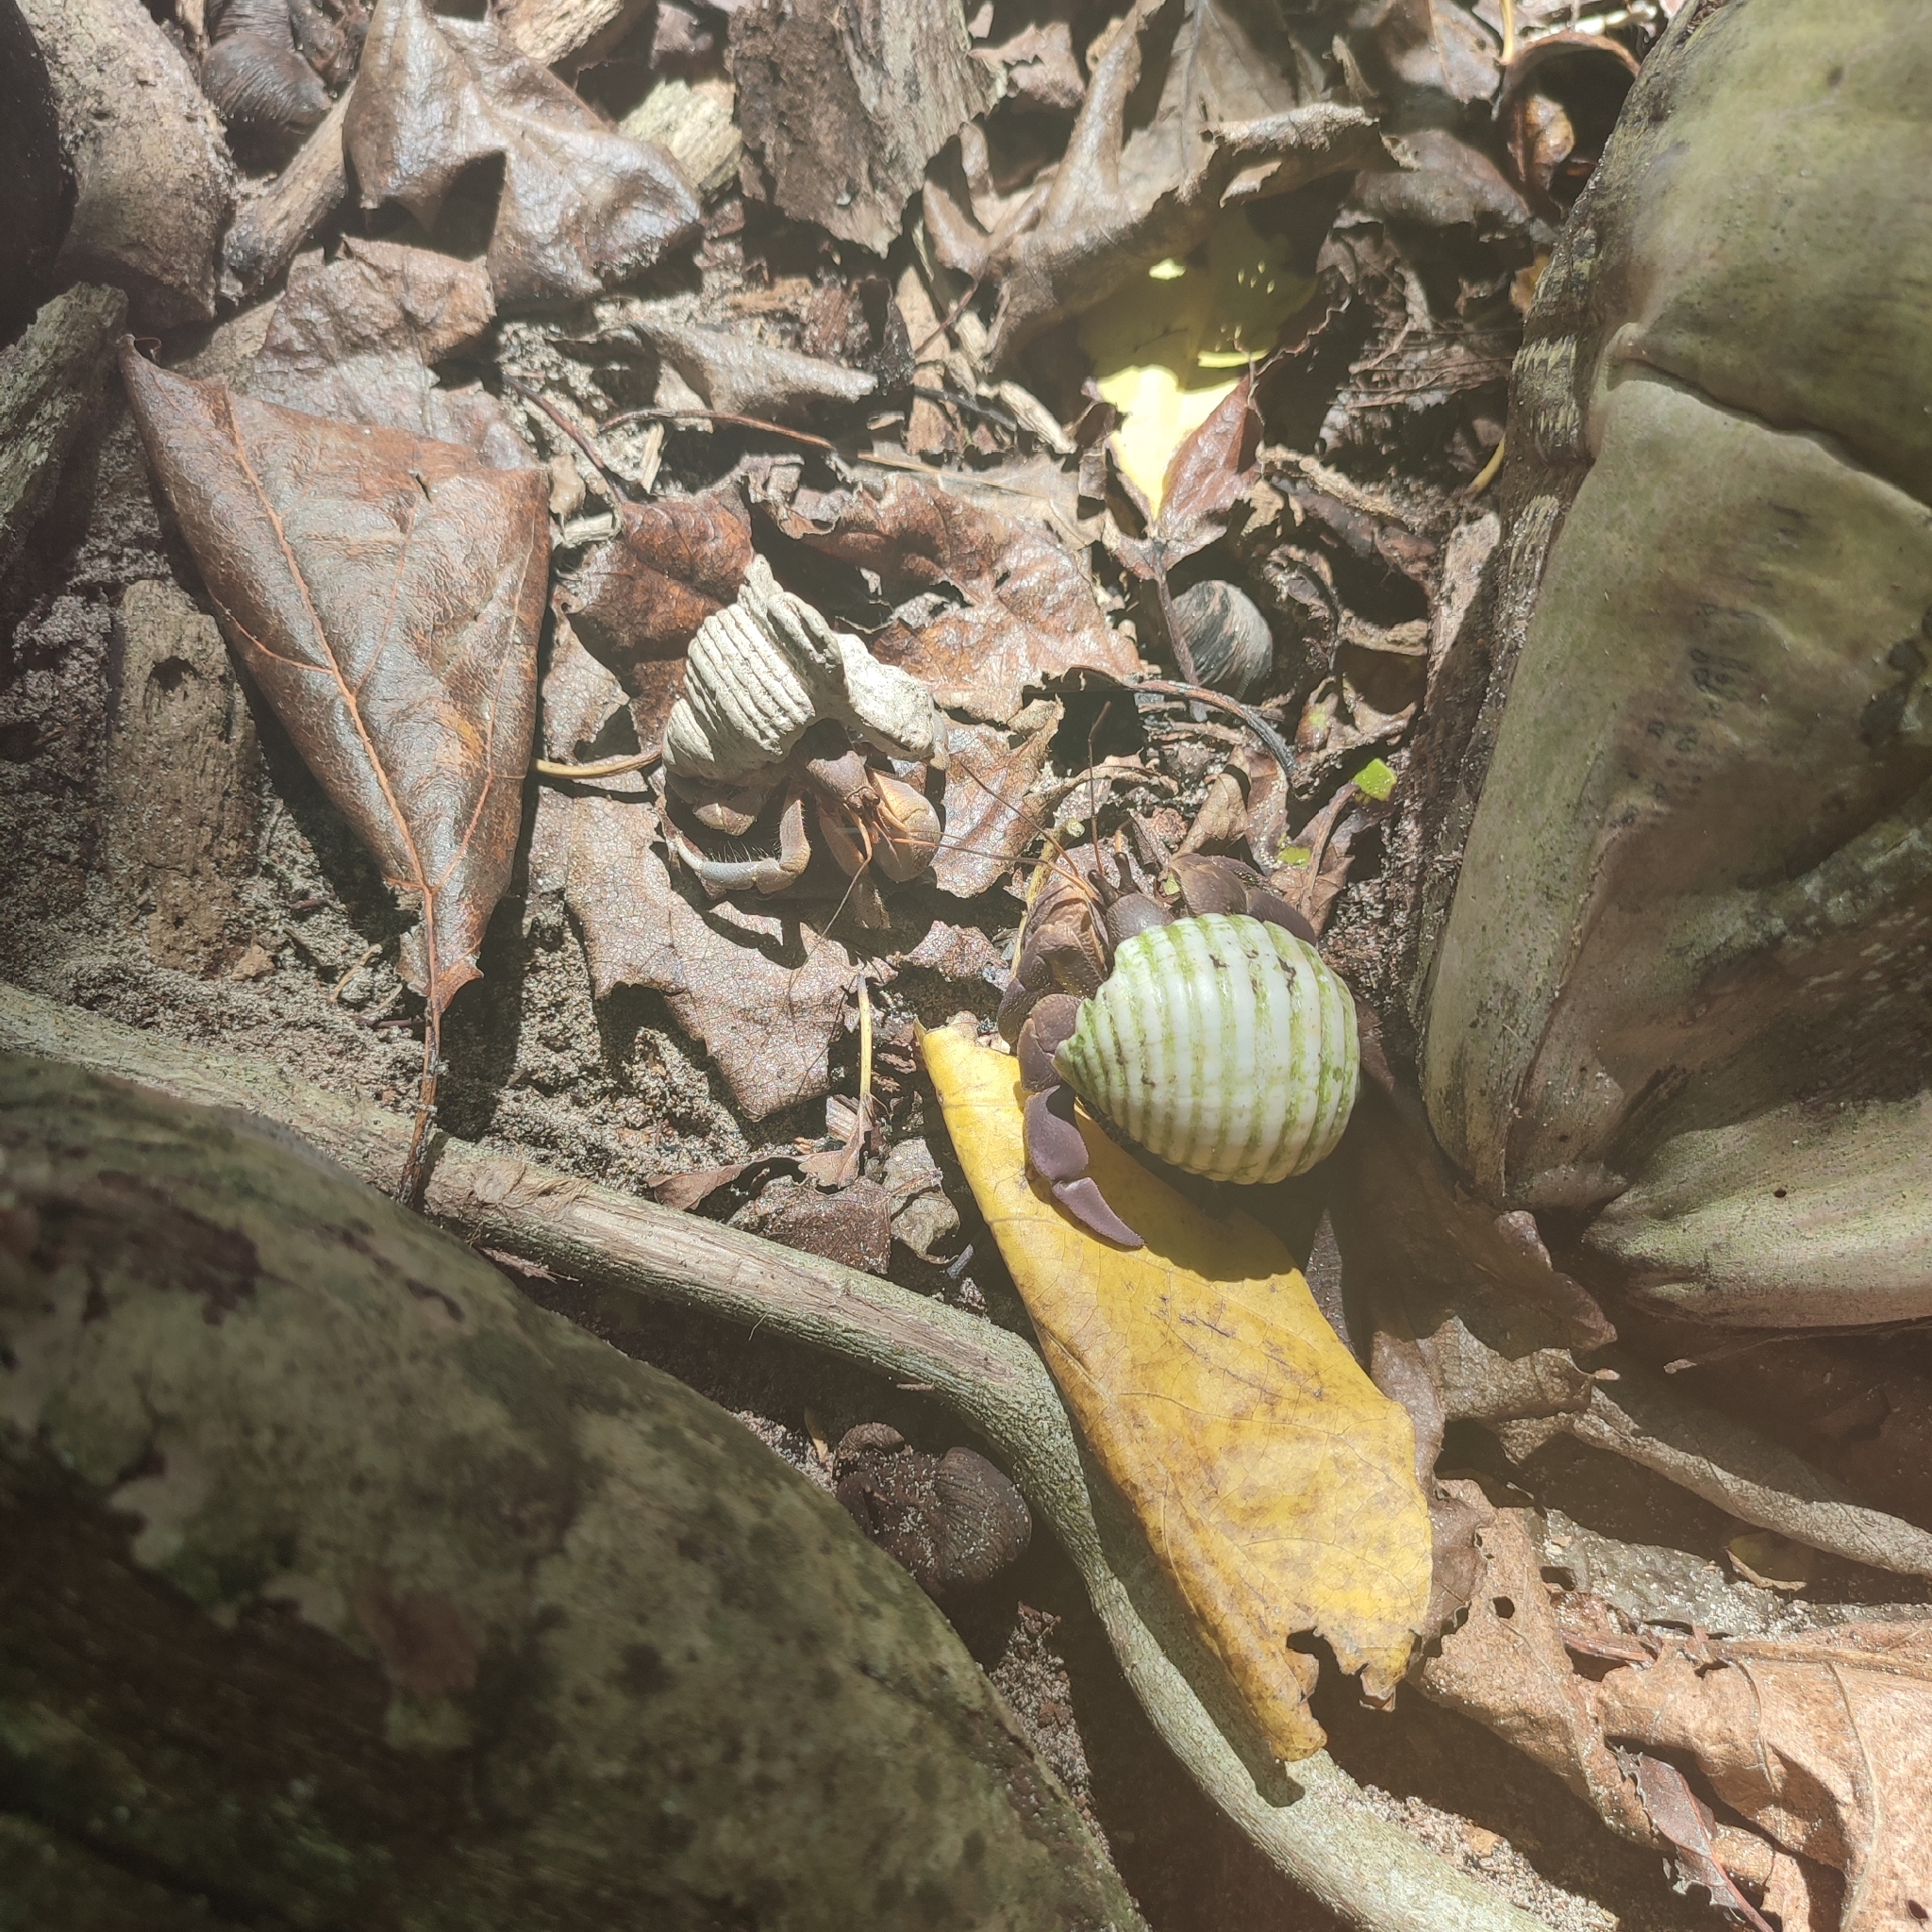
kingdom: Animalia
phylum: Arthropoda
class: Malacostraca
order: Decapoda
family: Coenobitidae
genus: Coenobita
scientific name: Coenobita brevimanus
